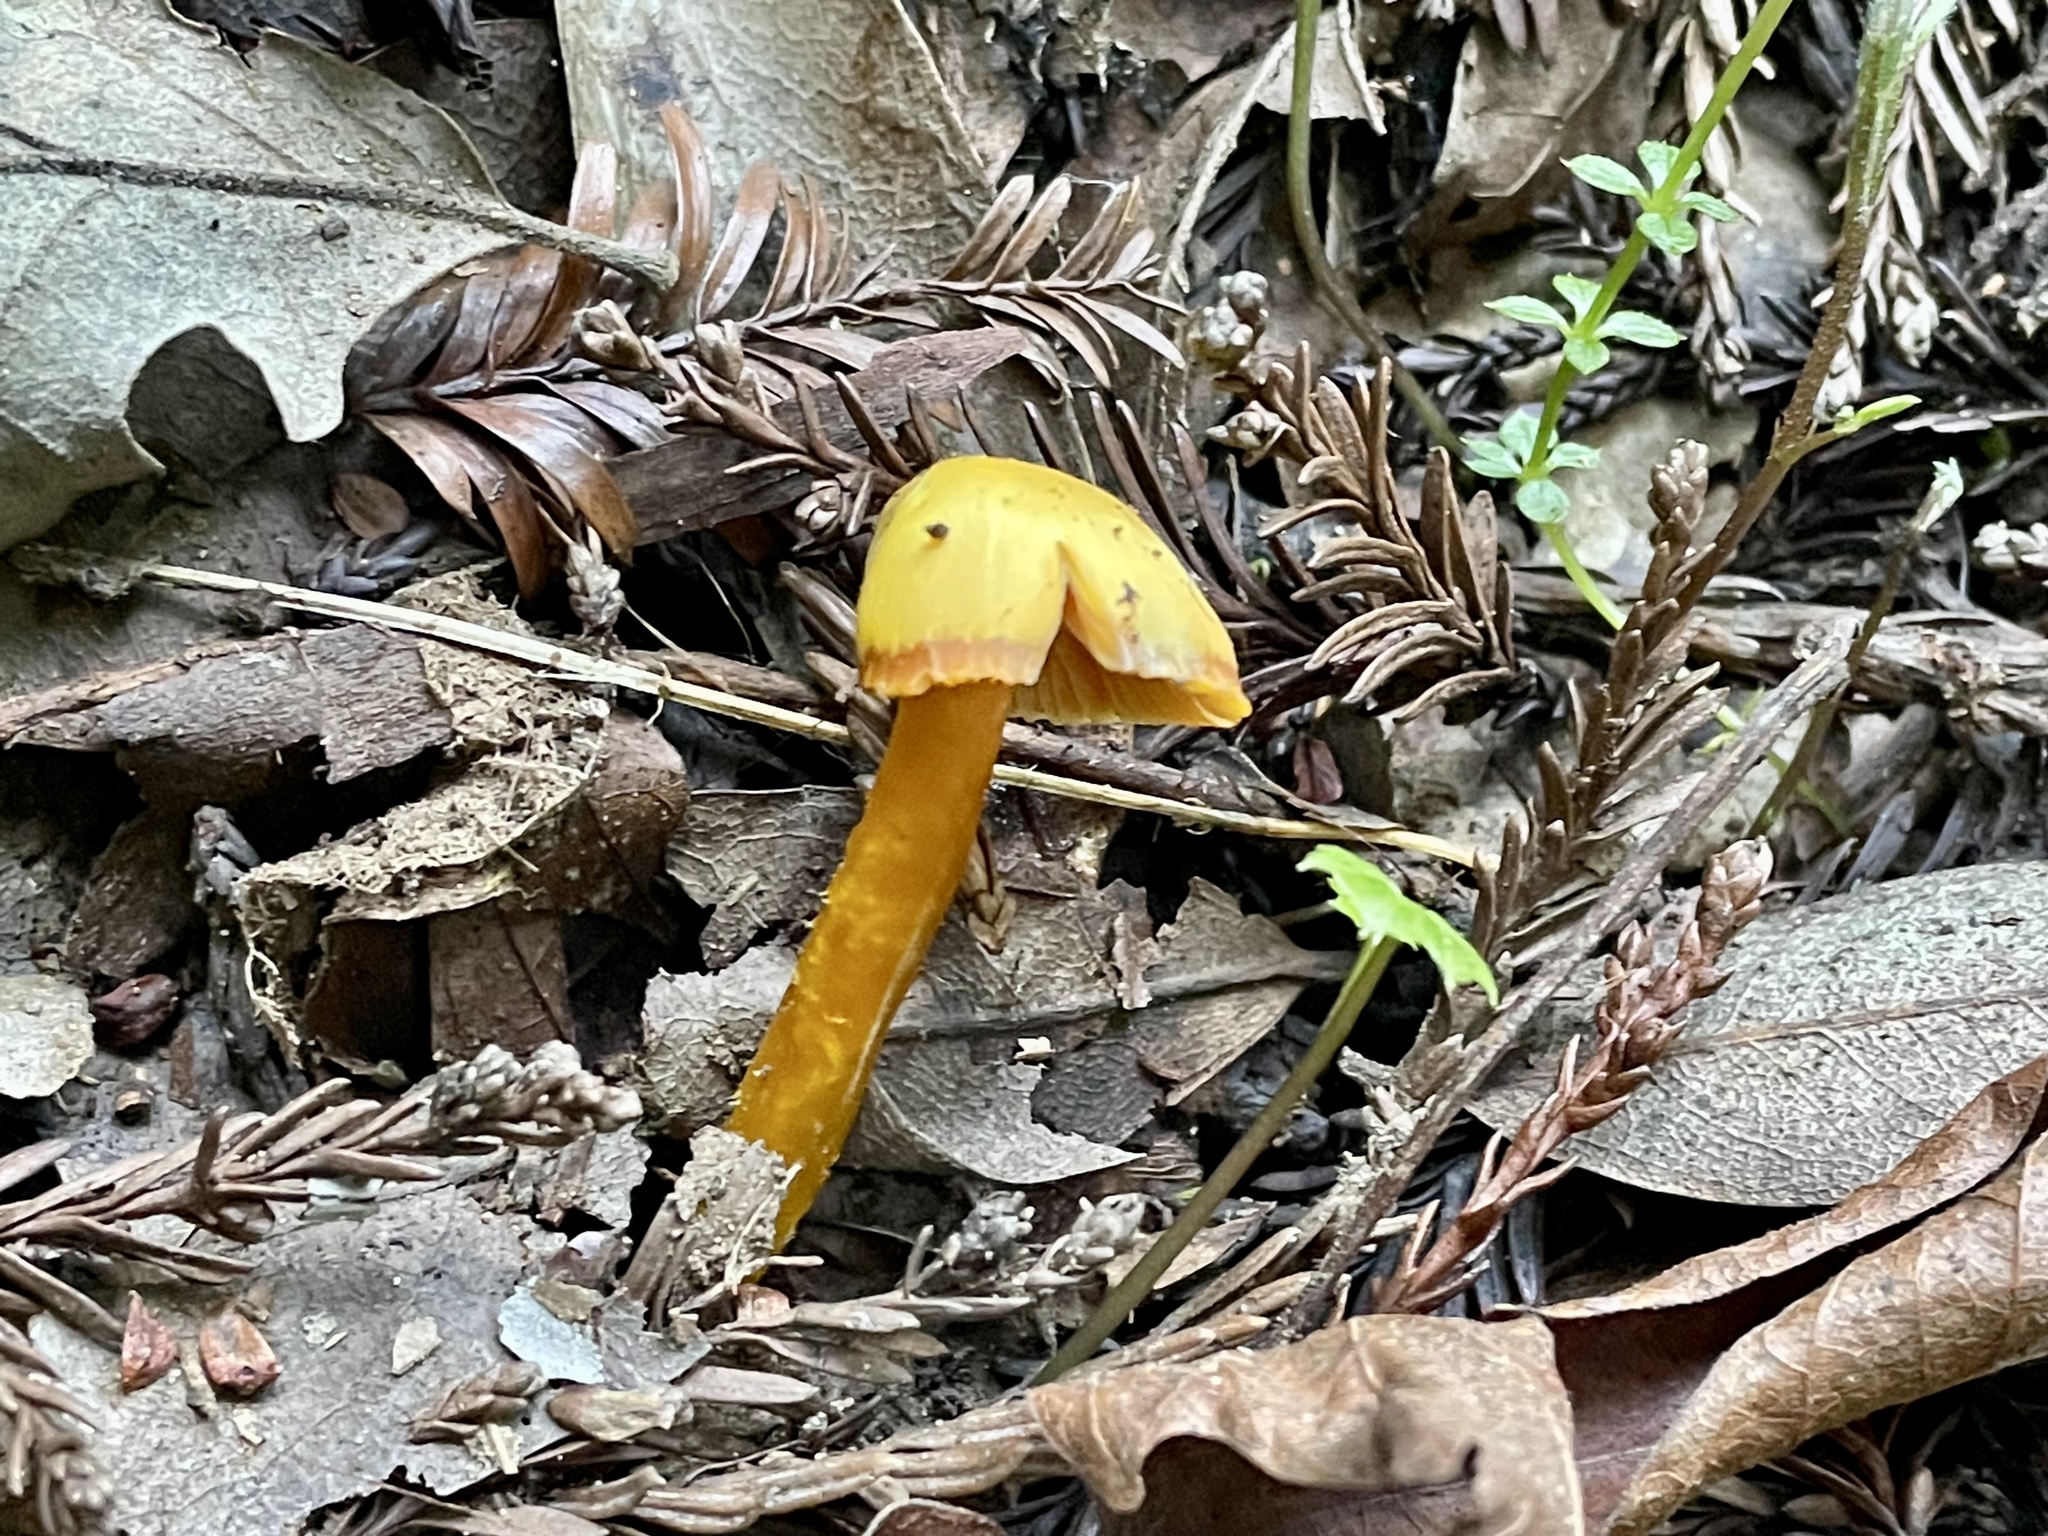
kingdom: Fungi
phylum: Basidiomycota
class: Agaricomycetes
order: Agaricales
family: Hygrophoraceae
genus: Hygrocybe
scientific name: Hygrocybe acutoconica
